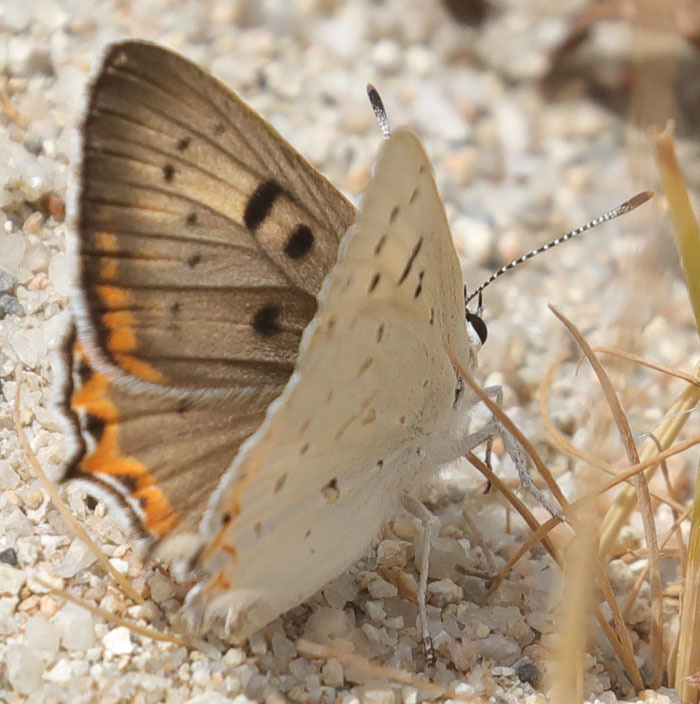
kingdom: Animalia
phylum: Arthropoda
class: Insecta
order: Lepidoptera
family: Lycaenidae
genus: Tharsalea
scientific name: Tharsalea xanthoides
